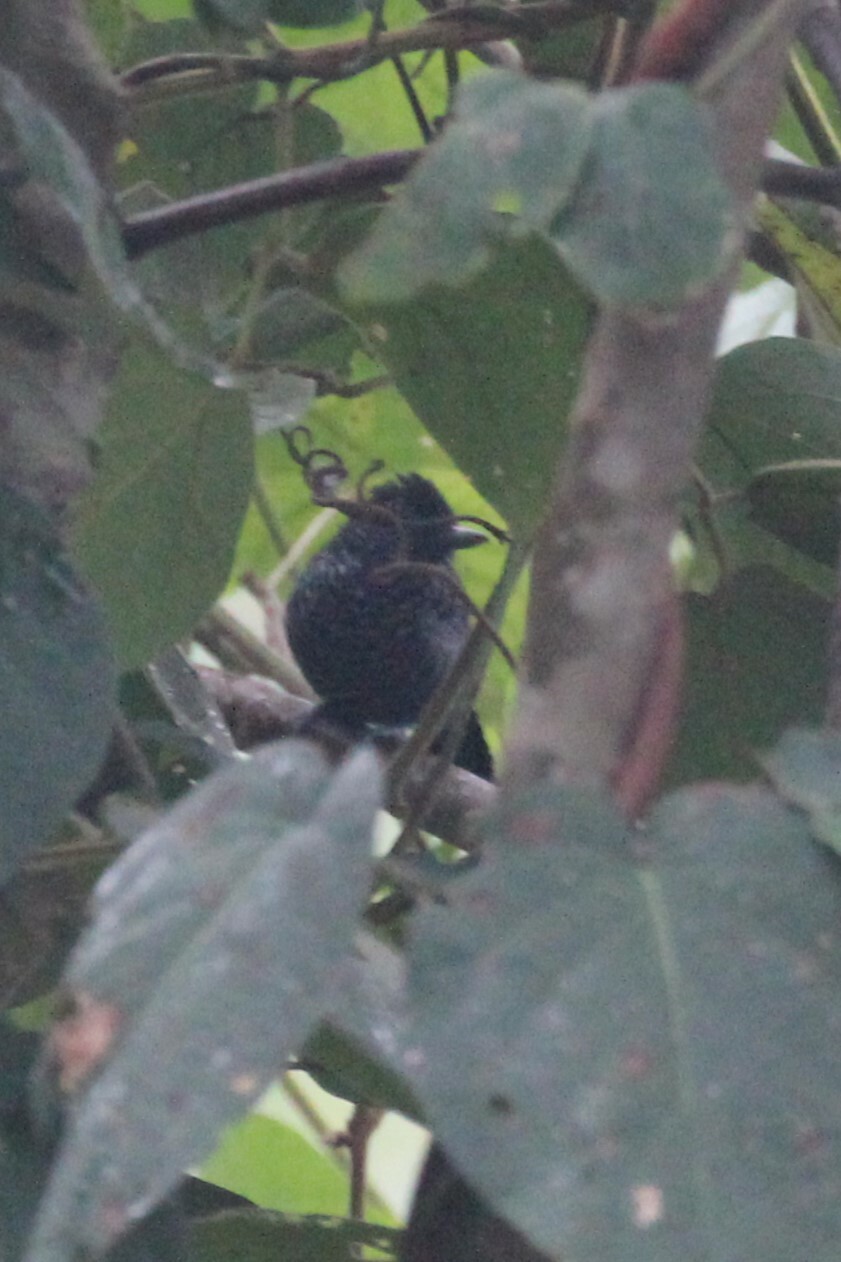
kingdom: Animalia
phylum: Chordata
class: Aves
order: Passeriformes
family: Thamnophilidae
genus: Thamnophilus
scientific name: Thamnophilus tenuepunctatus
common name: Lined antshrike
